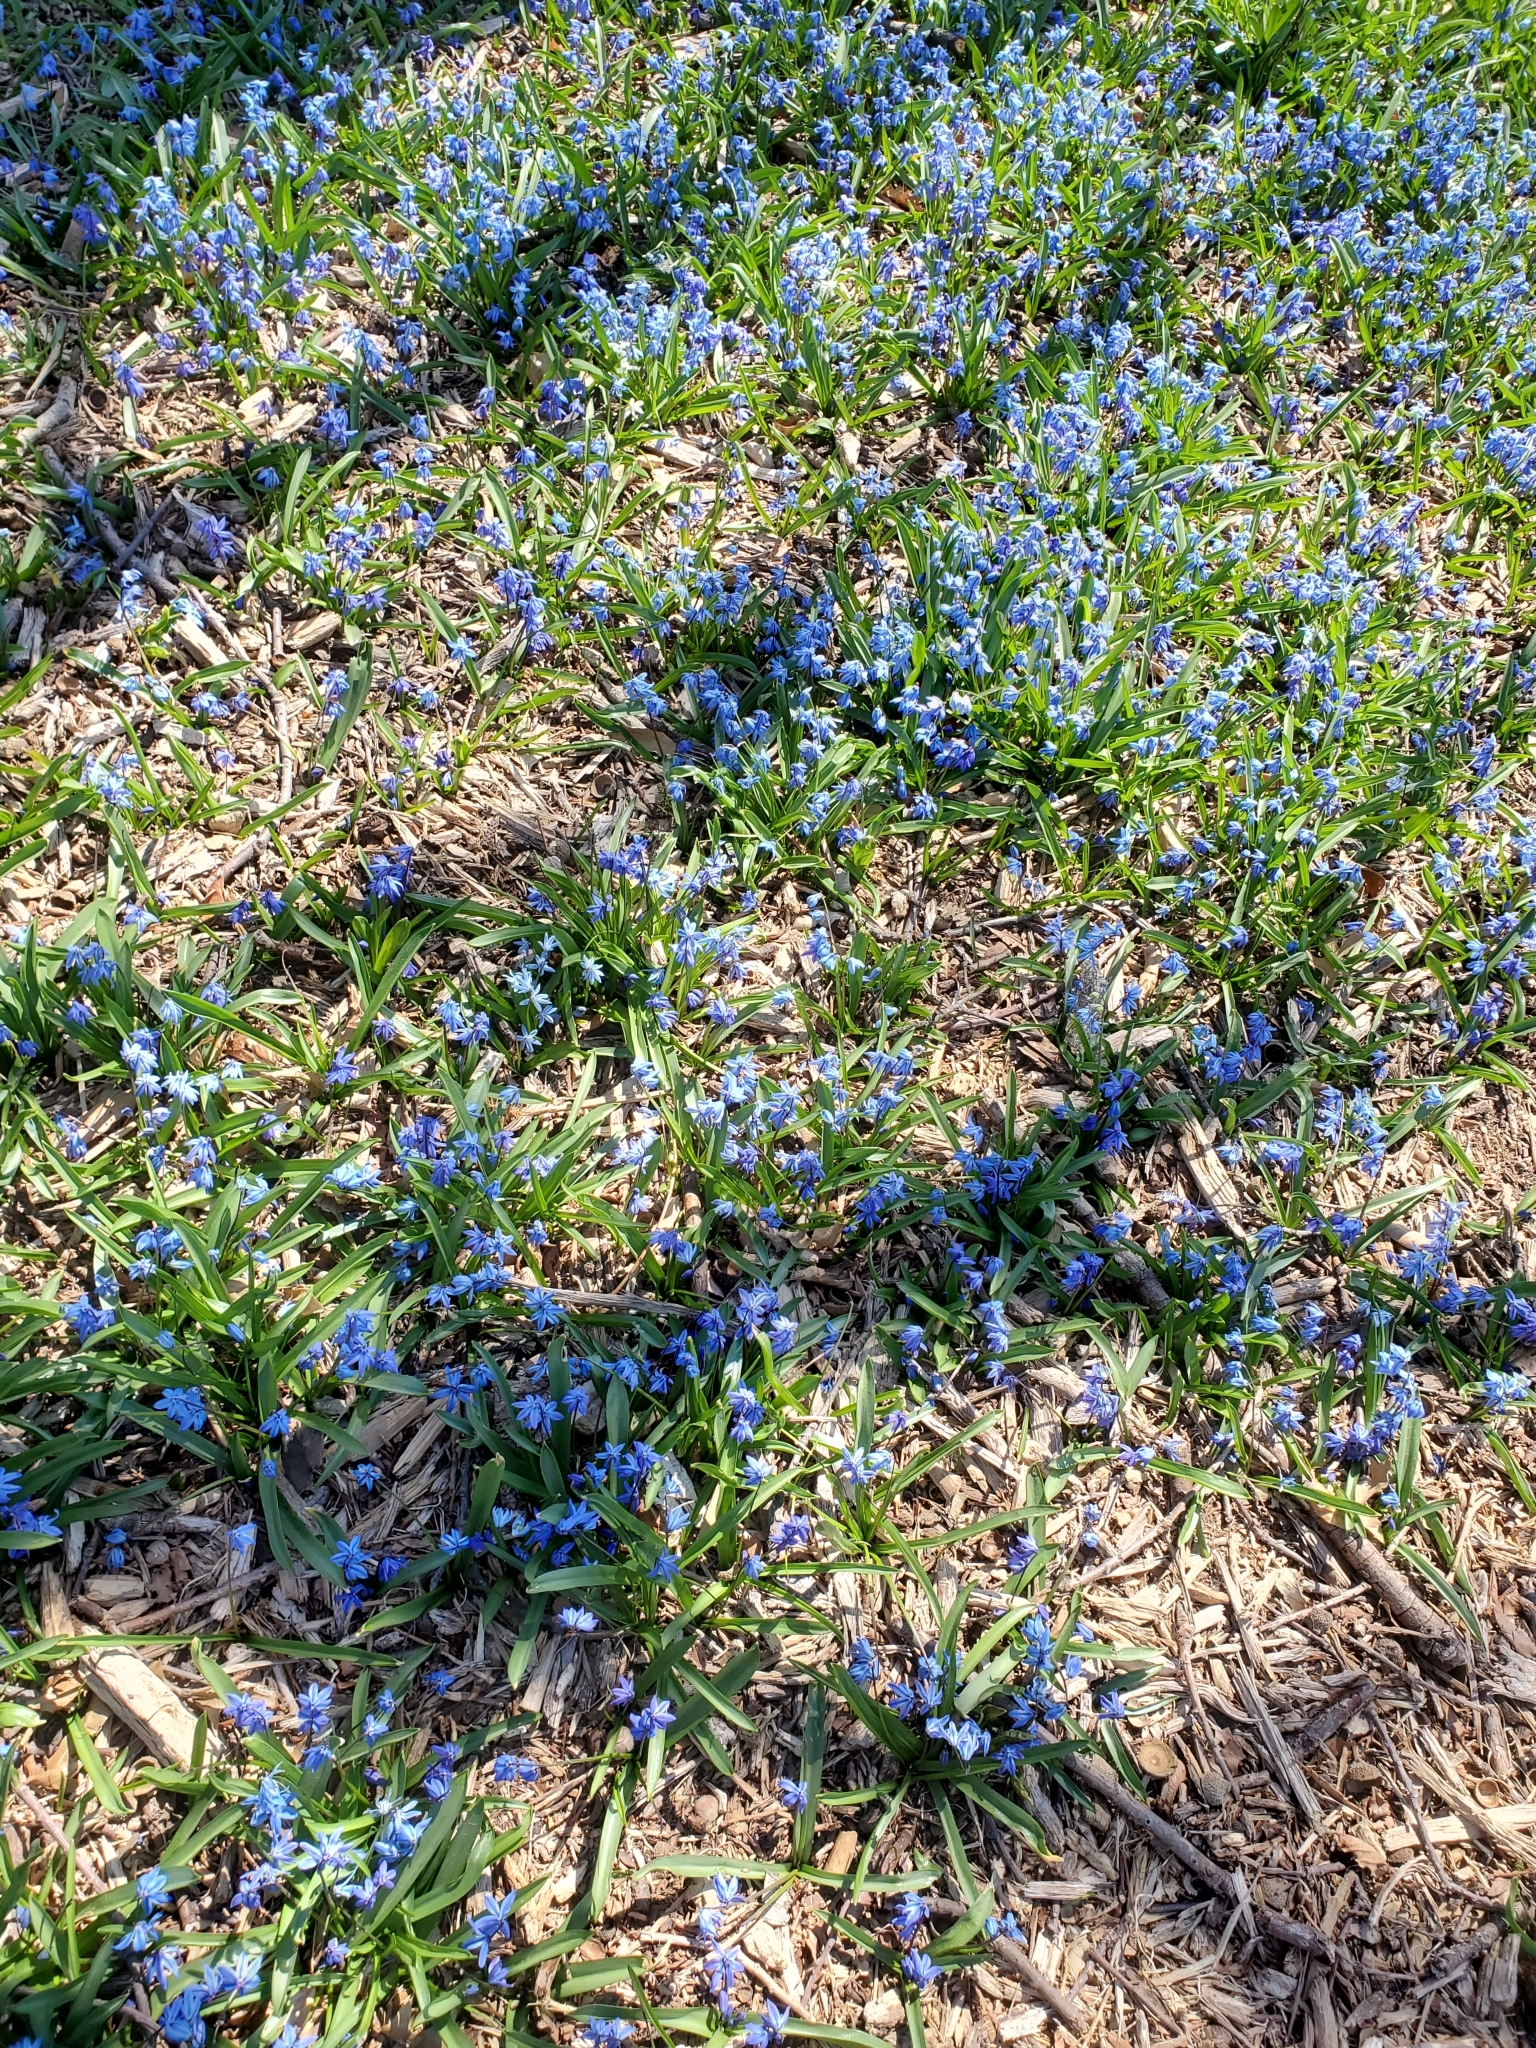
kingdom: Plantae
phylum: Tracheophyta
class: Liliopsida
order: Asparagales
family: Asparagaceae
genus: Scilla
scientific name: Scilla siberica
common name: Siberian squill
